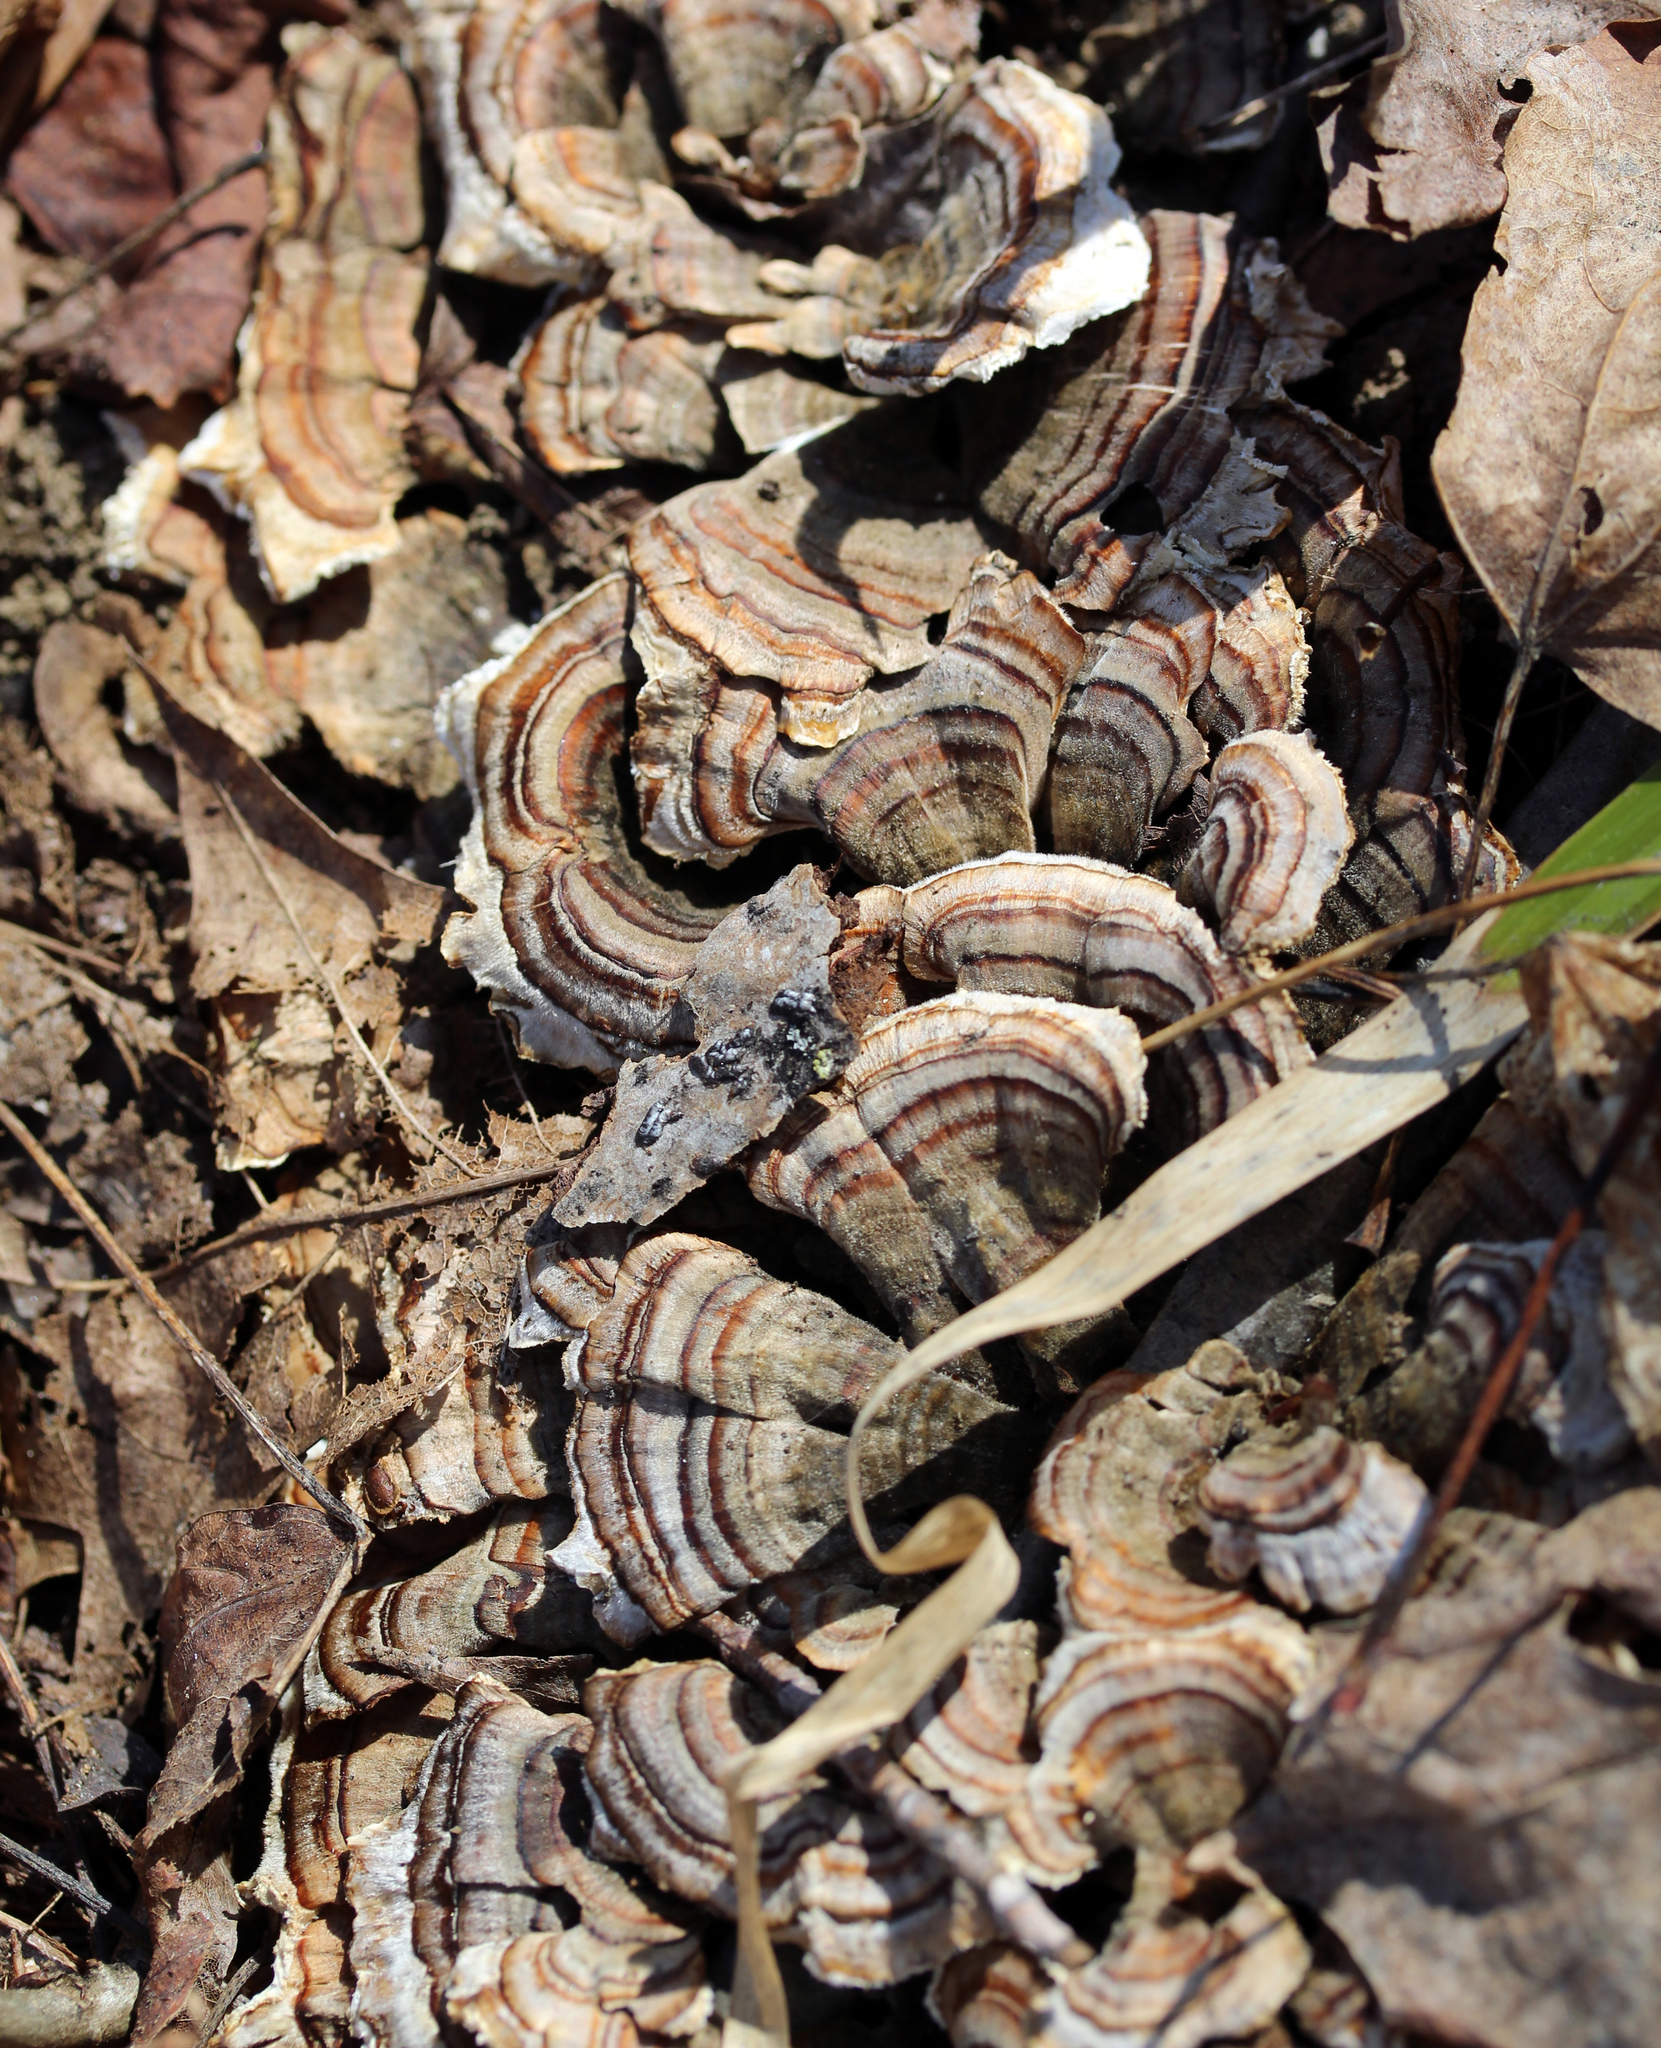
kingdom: Fungi
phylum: Basidiomycota
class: Agaricomycetes
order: Polyporales
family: Polyporaceae
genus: Trametes
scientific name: Trametes versicolor
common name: Turkeytail
